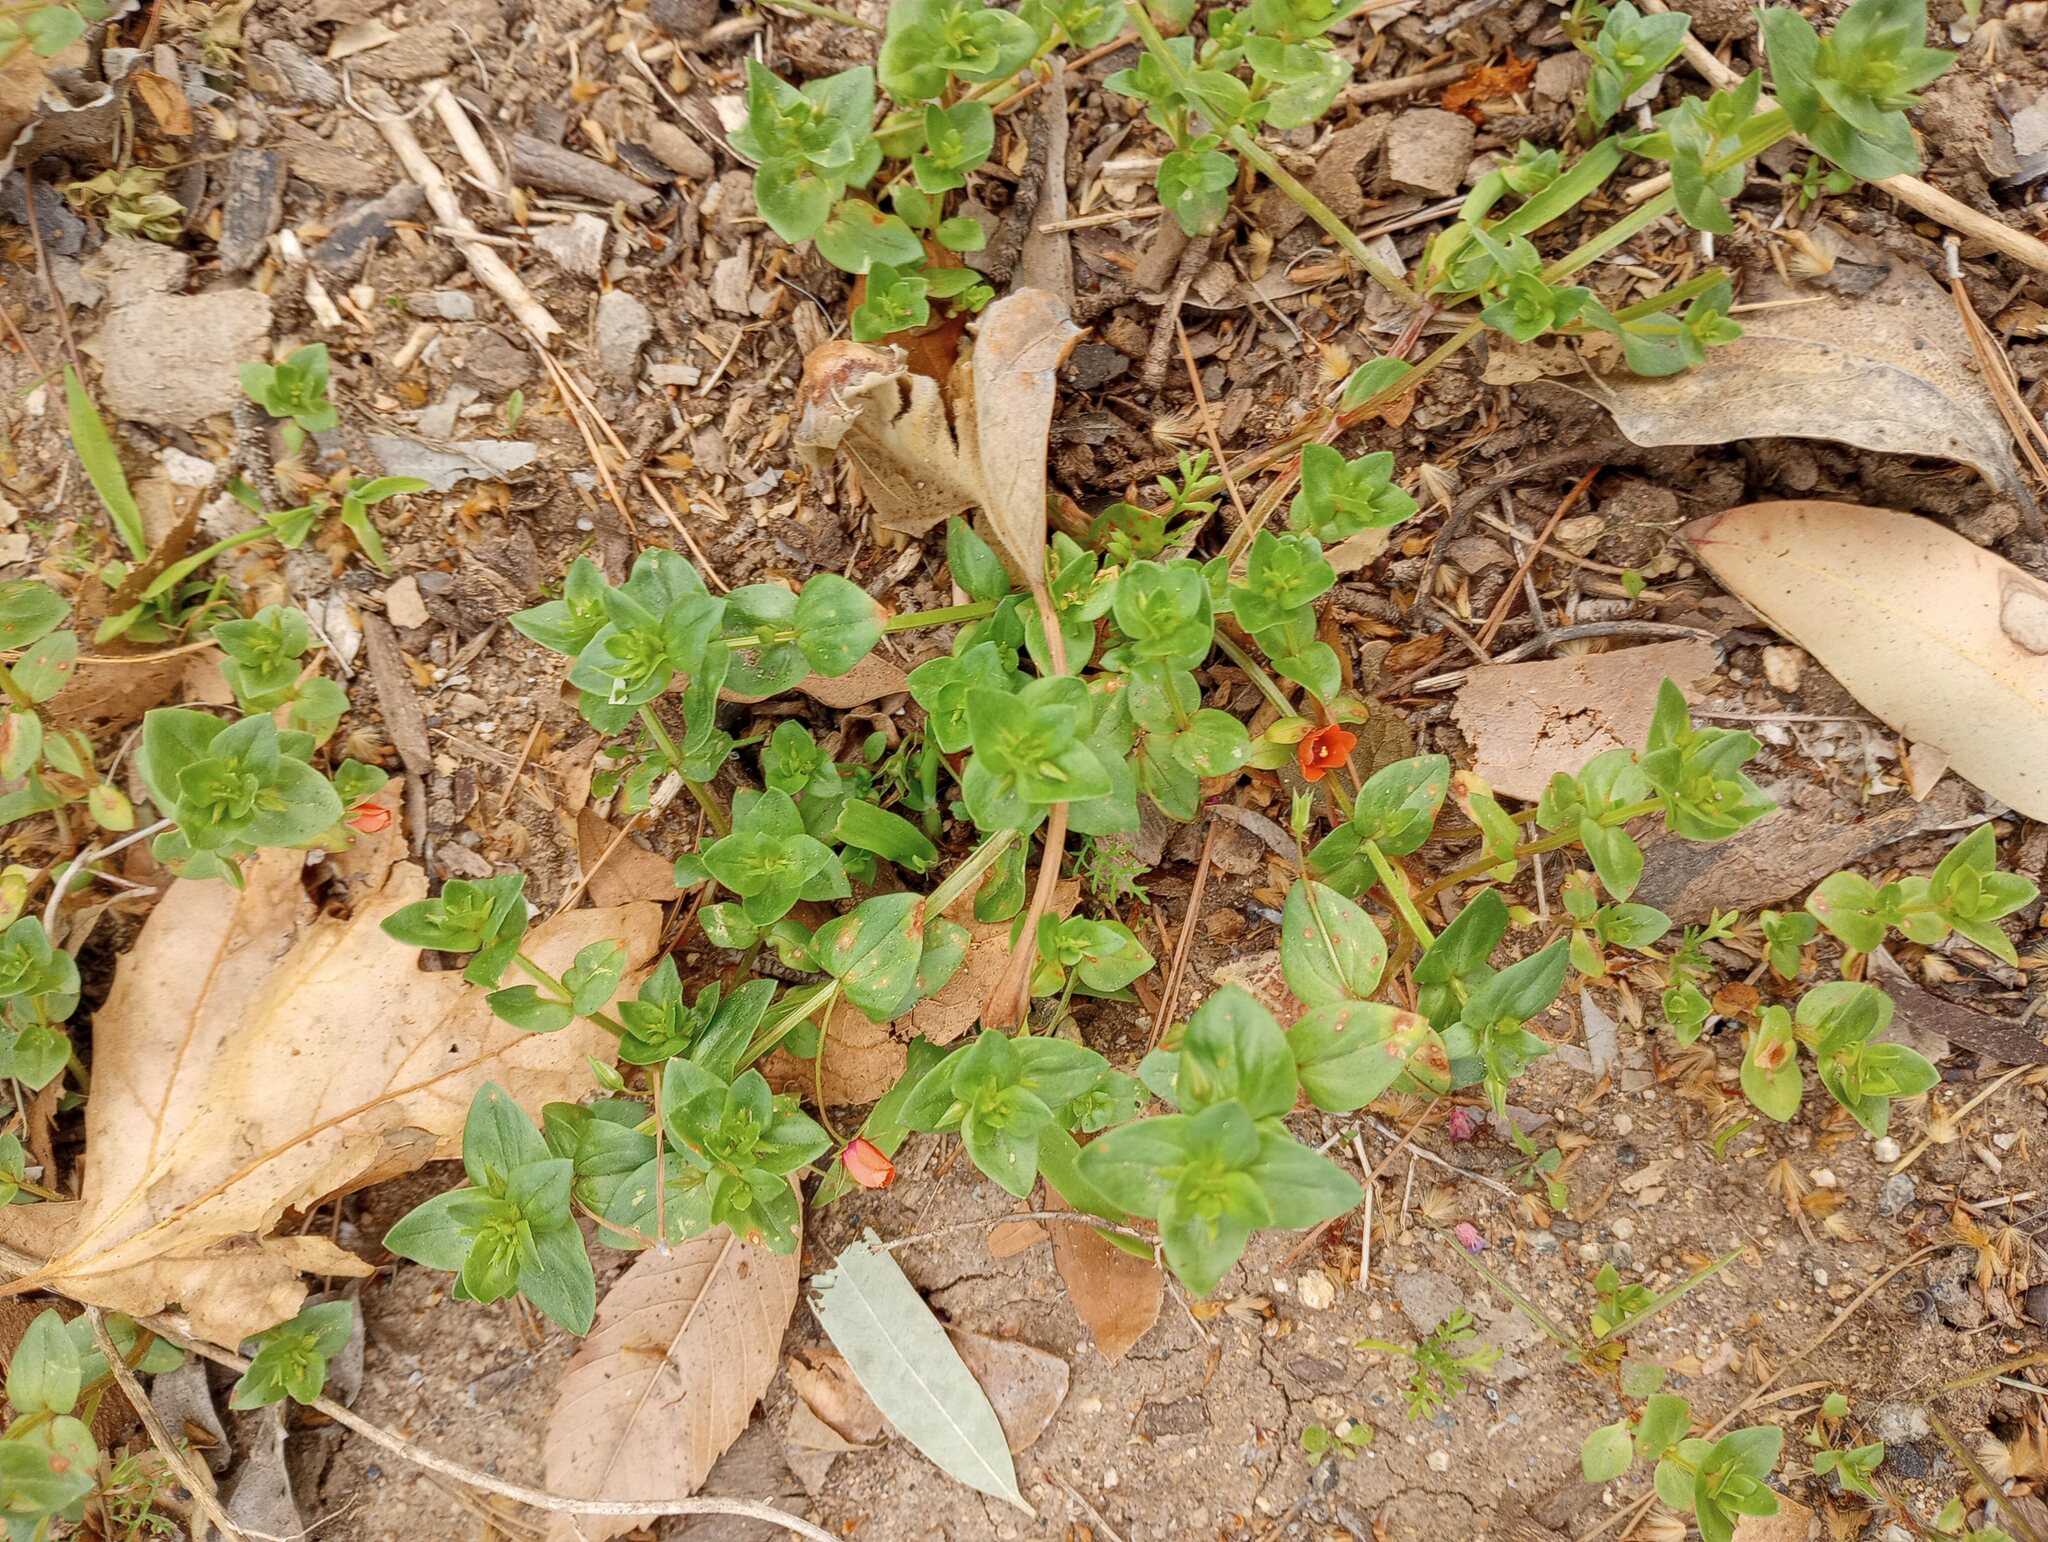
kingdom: Plantae
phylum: Tracheophyta
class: Magnoliopsida
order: Ericales
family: Primulaceae
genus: Lysimachia
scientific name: Lysimachia arvensis
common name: Scarlet pimpernel
